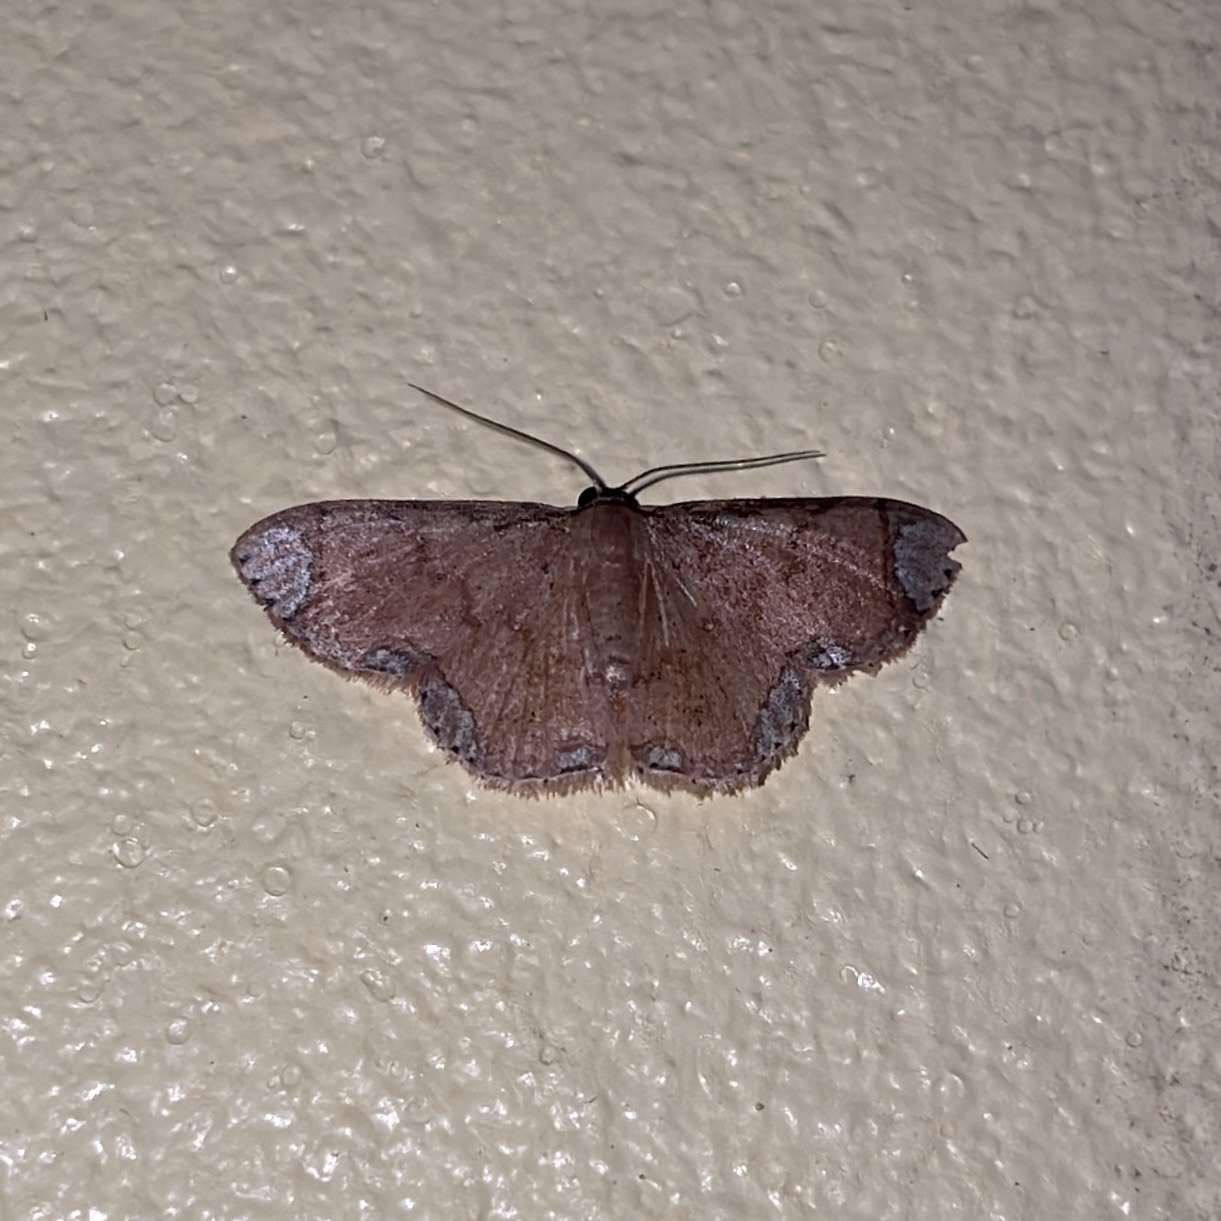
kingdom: Animalia
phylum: Arthropoda
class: Insecta
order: Lepidoptera
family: Geometridae
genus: Lipotaxia
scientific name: Lipotaxia rubicunda
